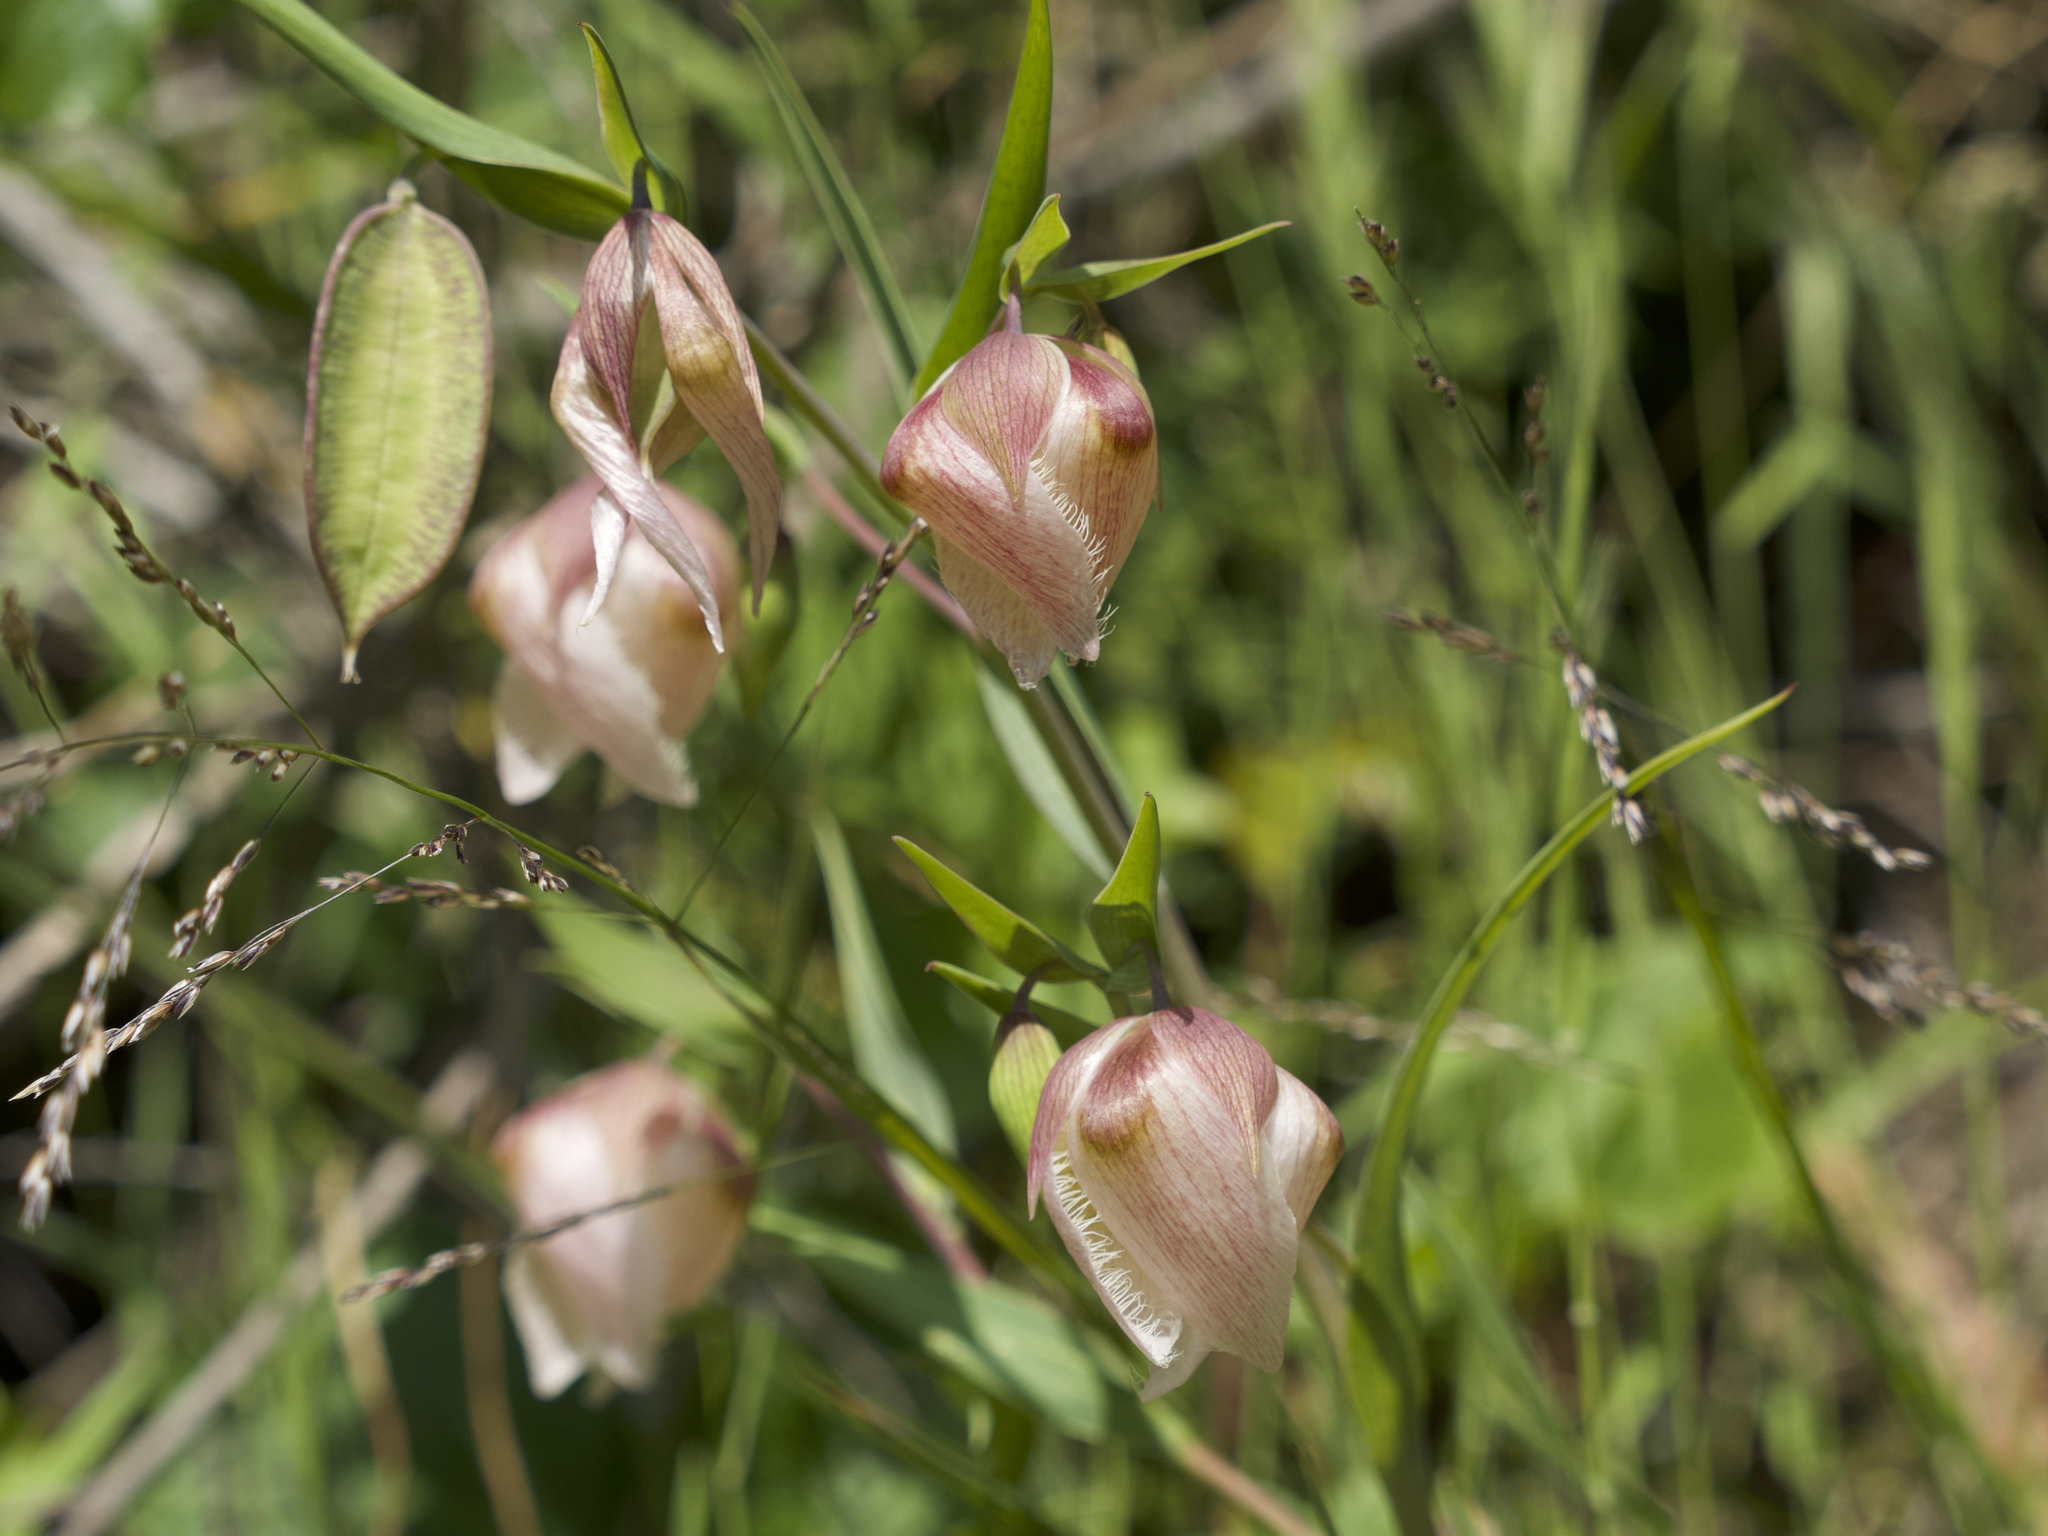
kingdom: Plantae
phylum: Tracheophyta
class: Liliopsida
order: Liliales
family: Liliaceae
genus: Calochortus
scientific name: Calochortus albus
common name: Fairy-lantern
